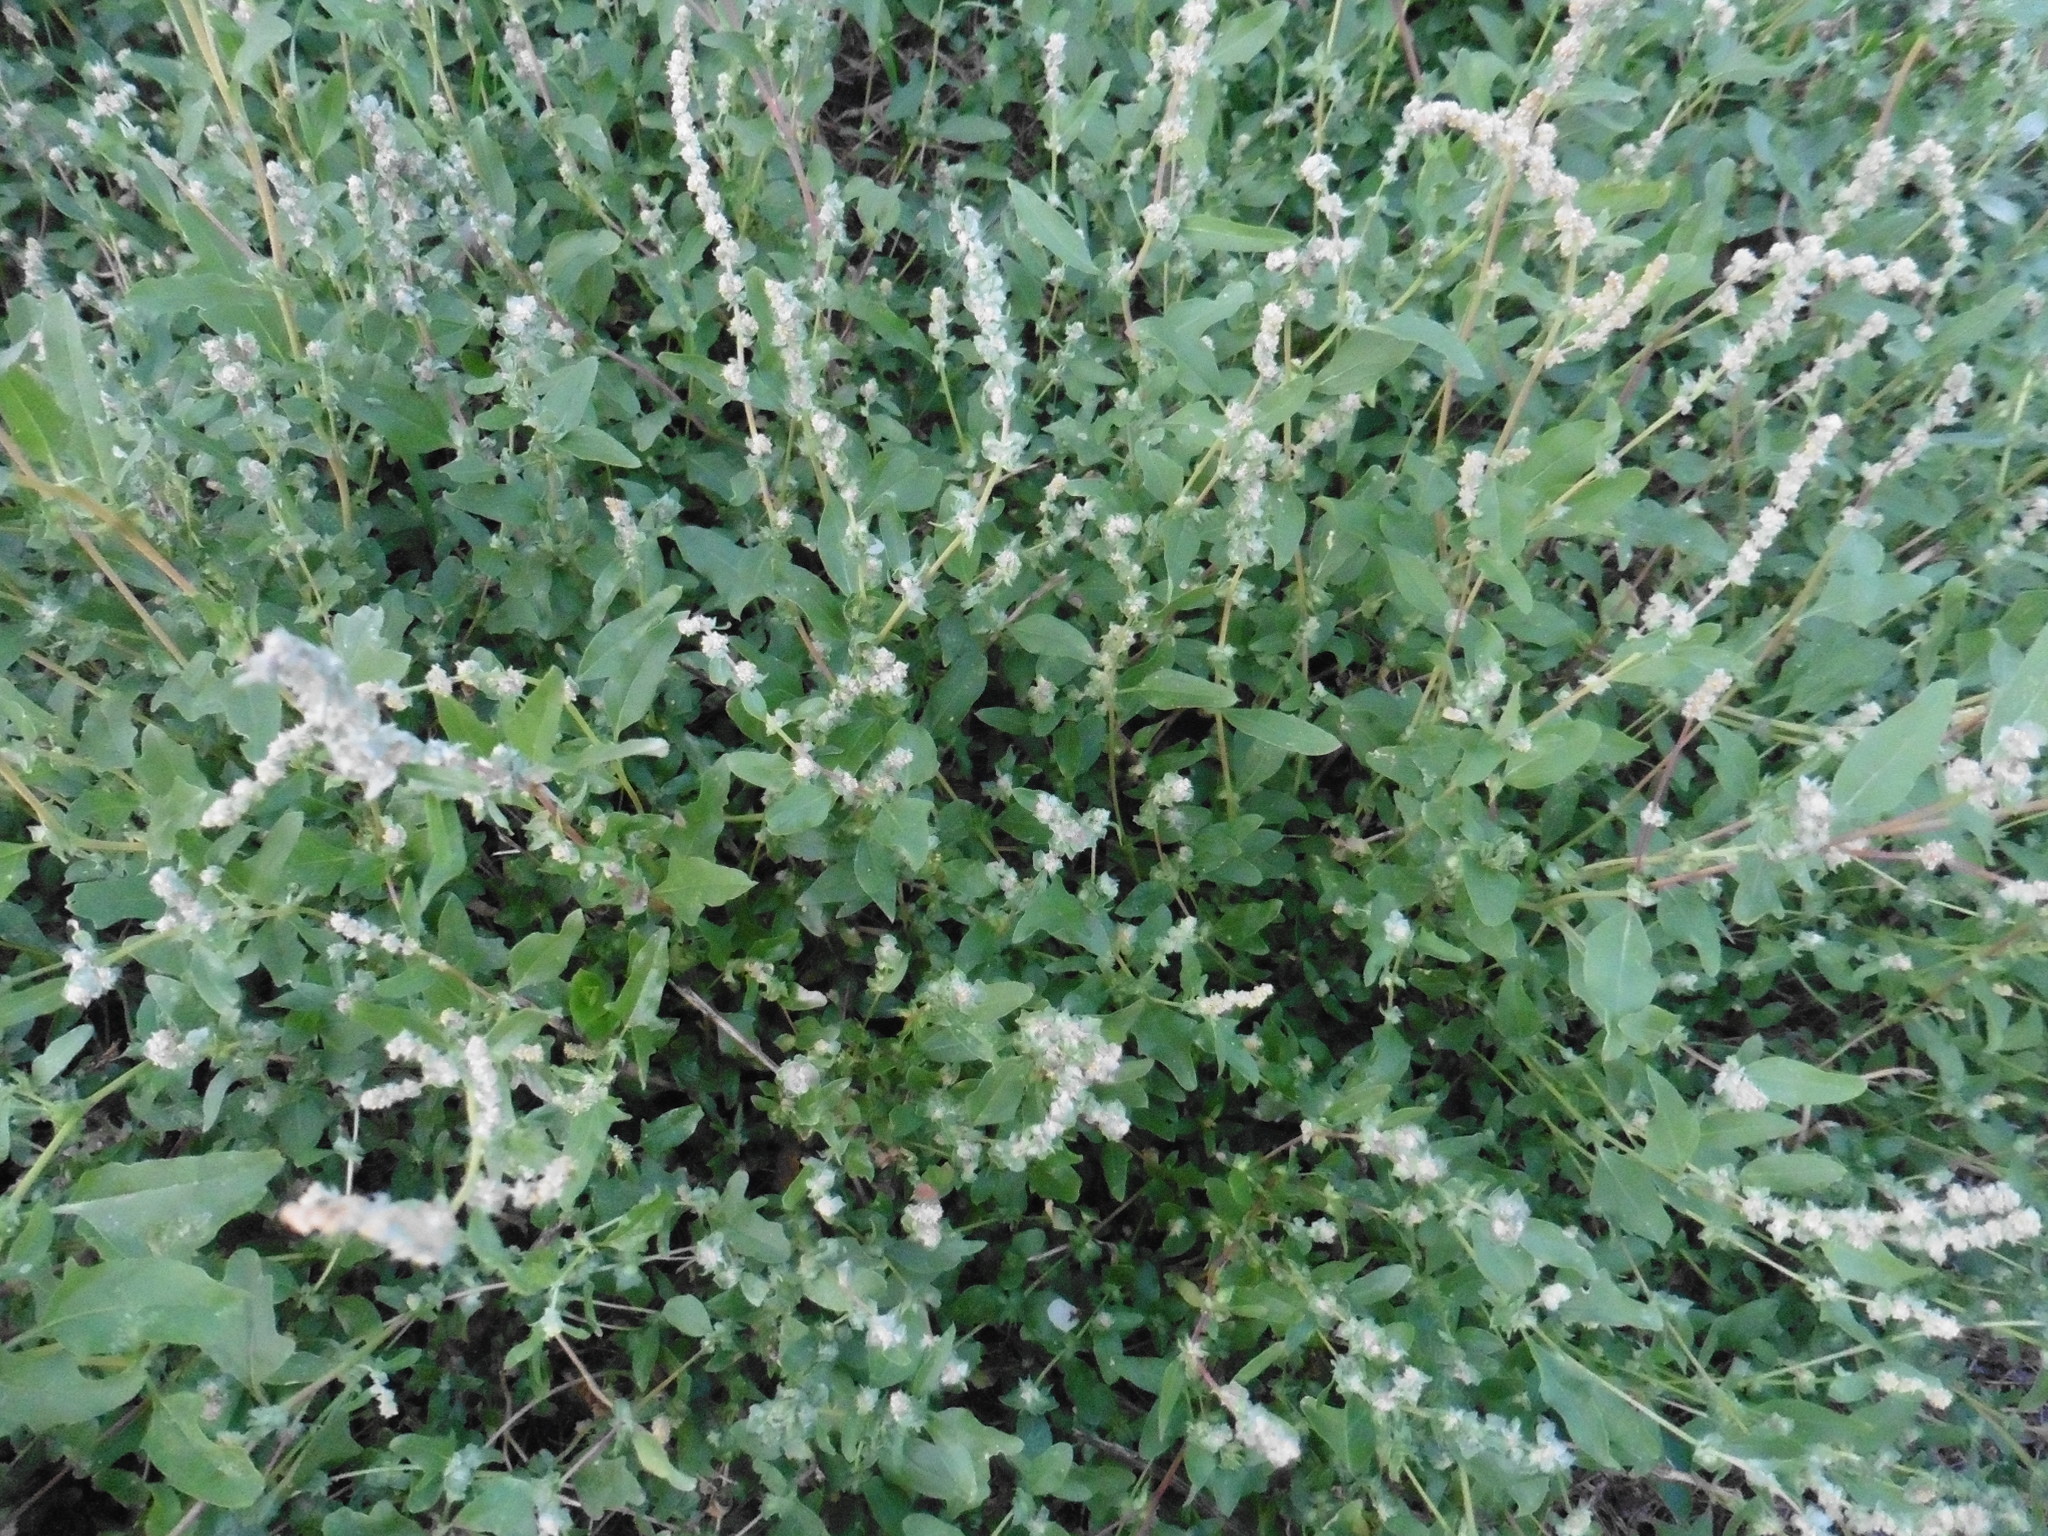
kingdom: Plantae
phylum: Tracheophyta
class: Magnoliopsida
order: Caryophyllales
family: Amaranthaceae
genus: Atriplex
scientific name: Atriplex tatarica
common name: Tatarian orache
